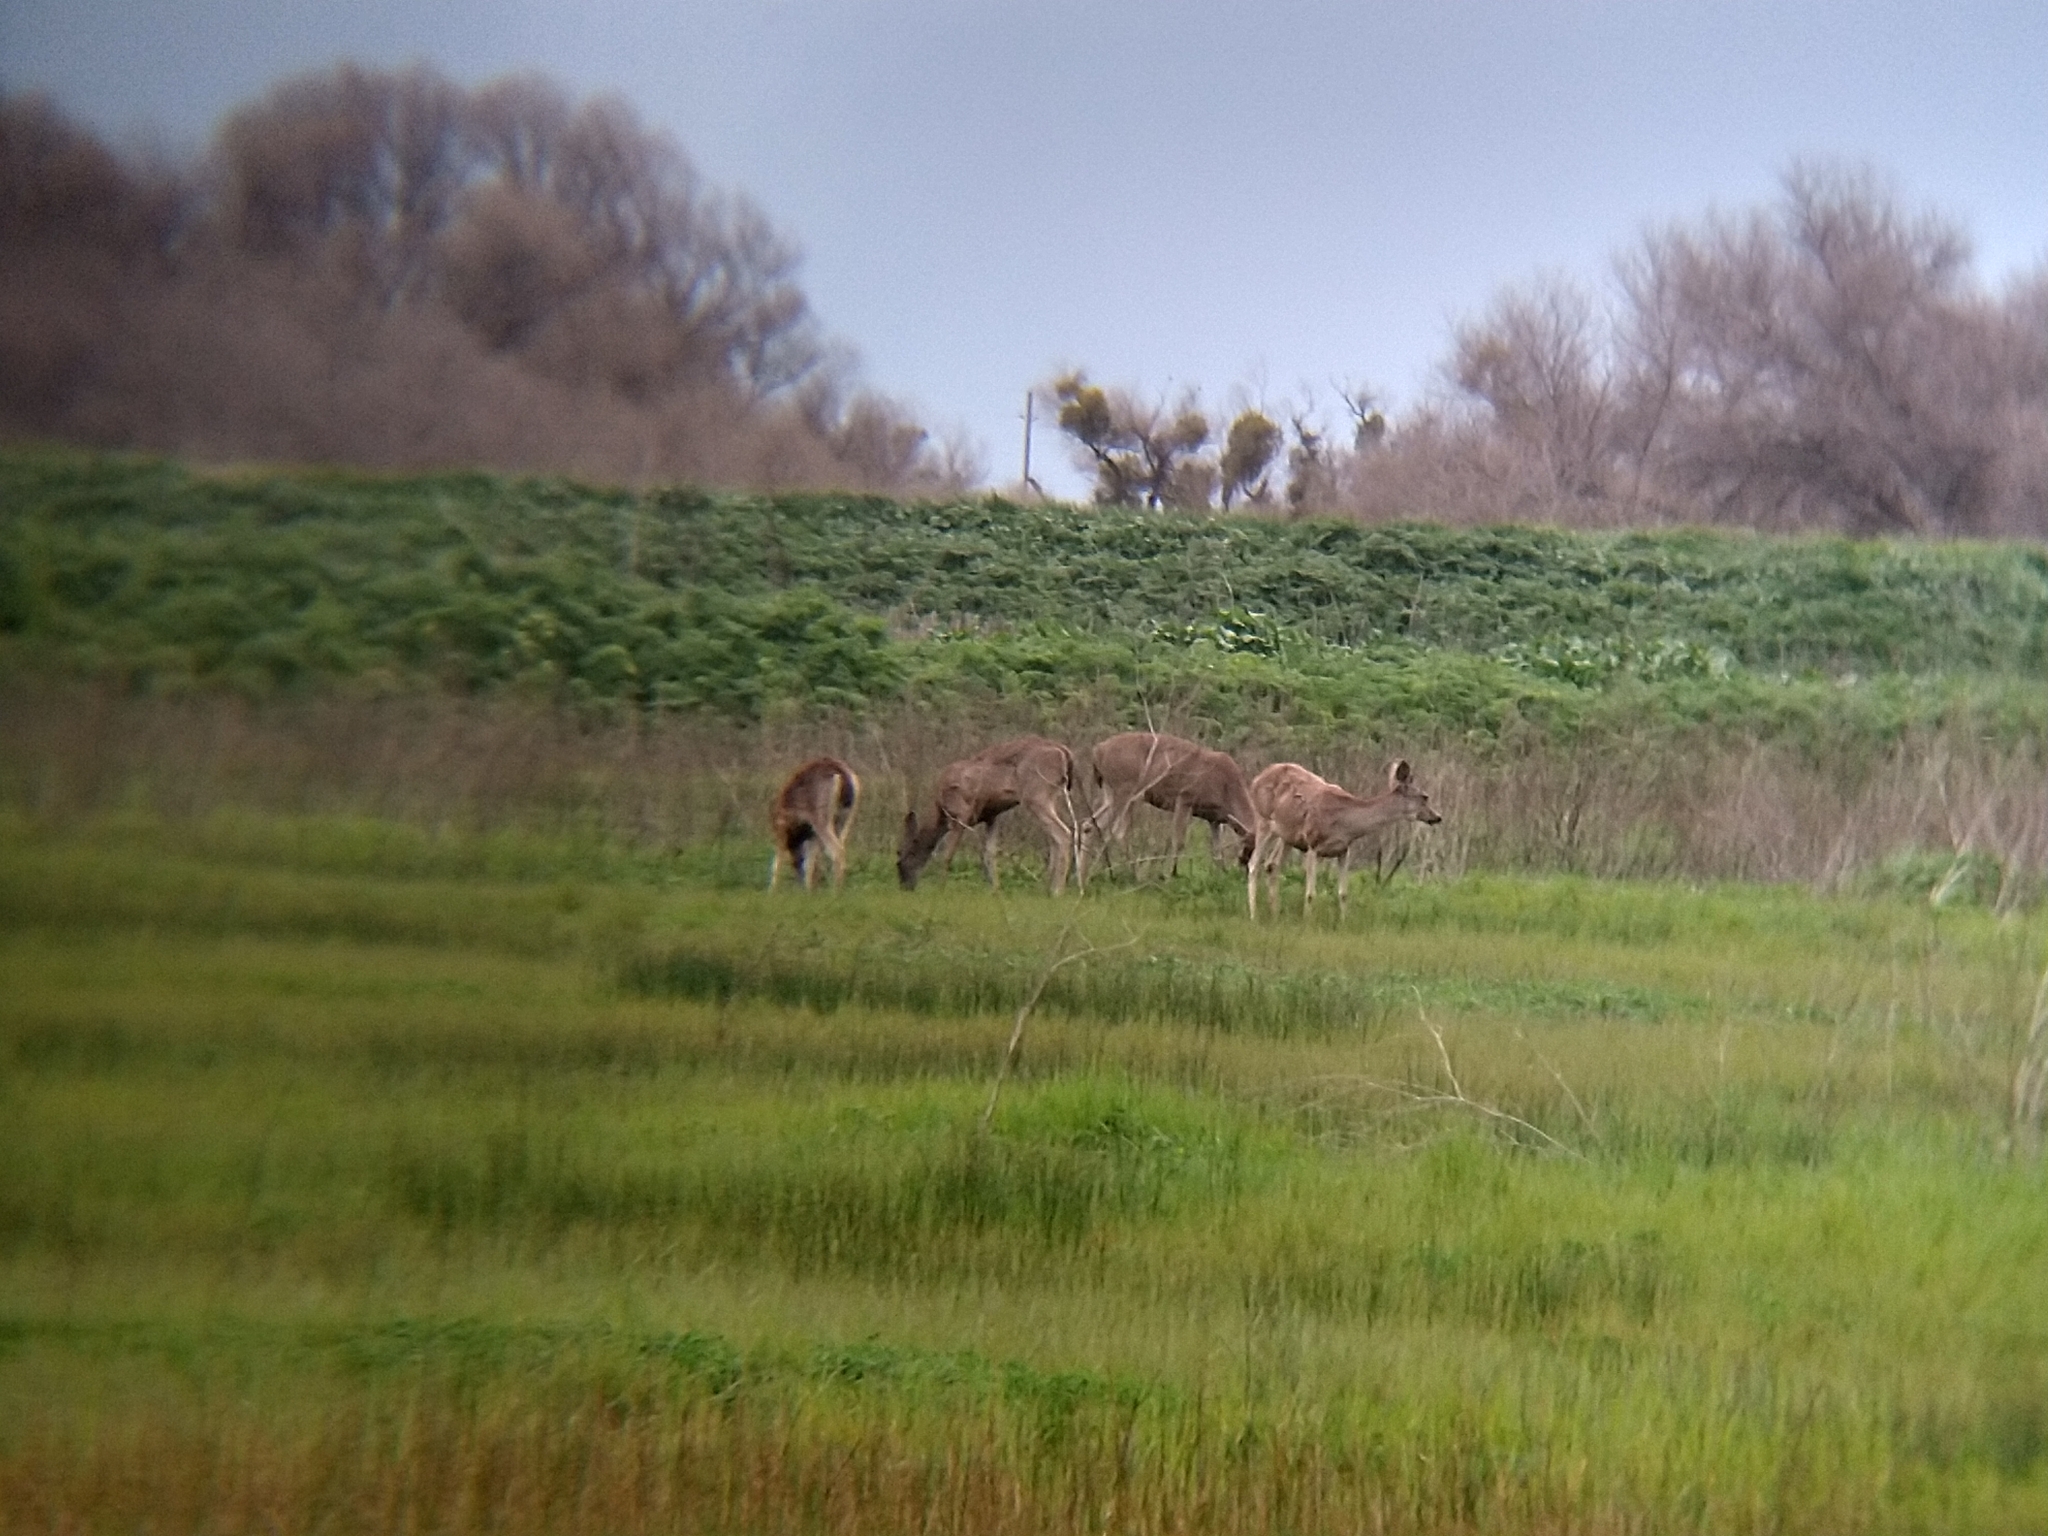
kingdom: Animalia
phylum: Chordata
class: Mammalia
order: Artiodactyla
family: Cervidae
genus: Odocoileus
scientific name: Odocoileus hemionus
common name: Mule deer
